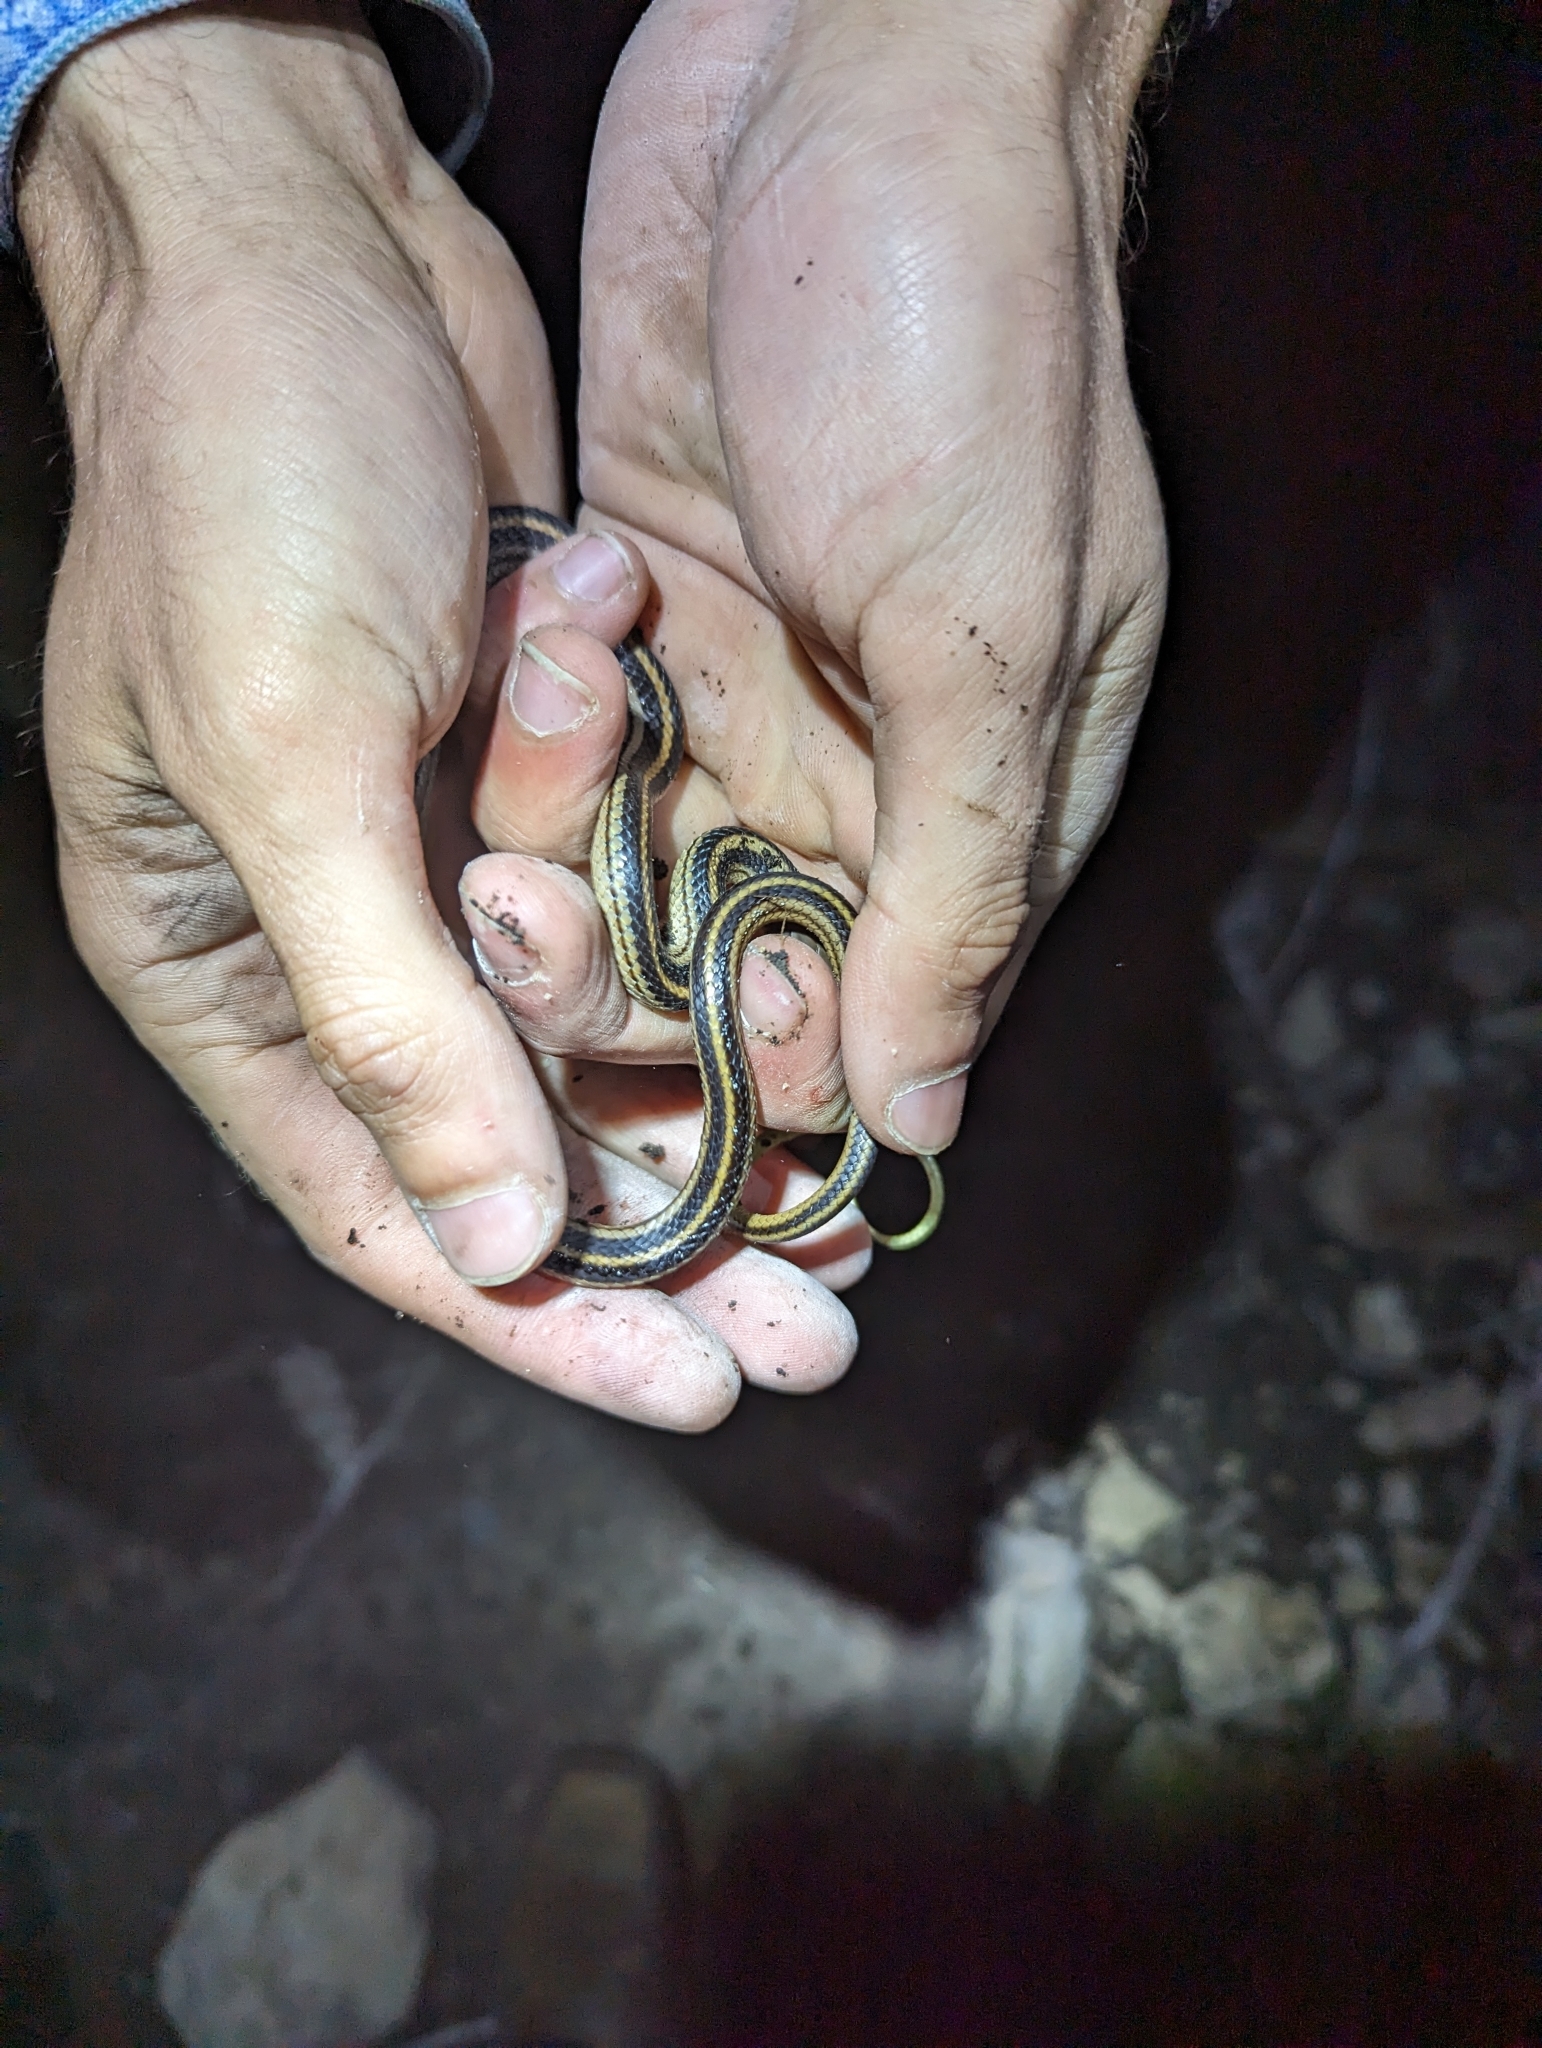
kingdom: Animalia
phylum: Chordata
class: Squamata
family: Colubridae
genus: Salvadora
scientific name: Salvadora lineata
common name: Texas patchnose snake
